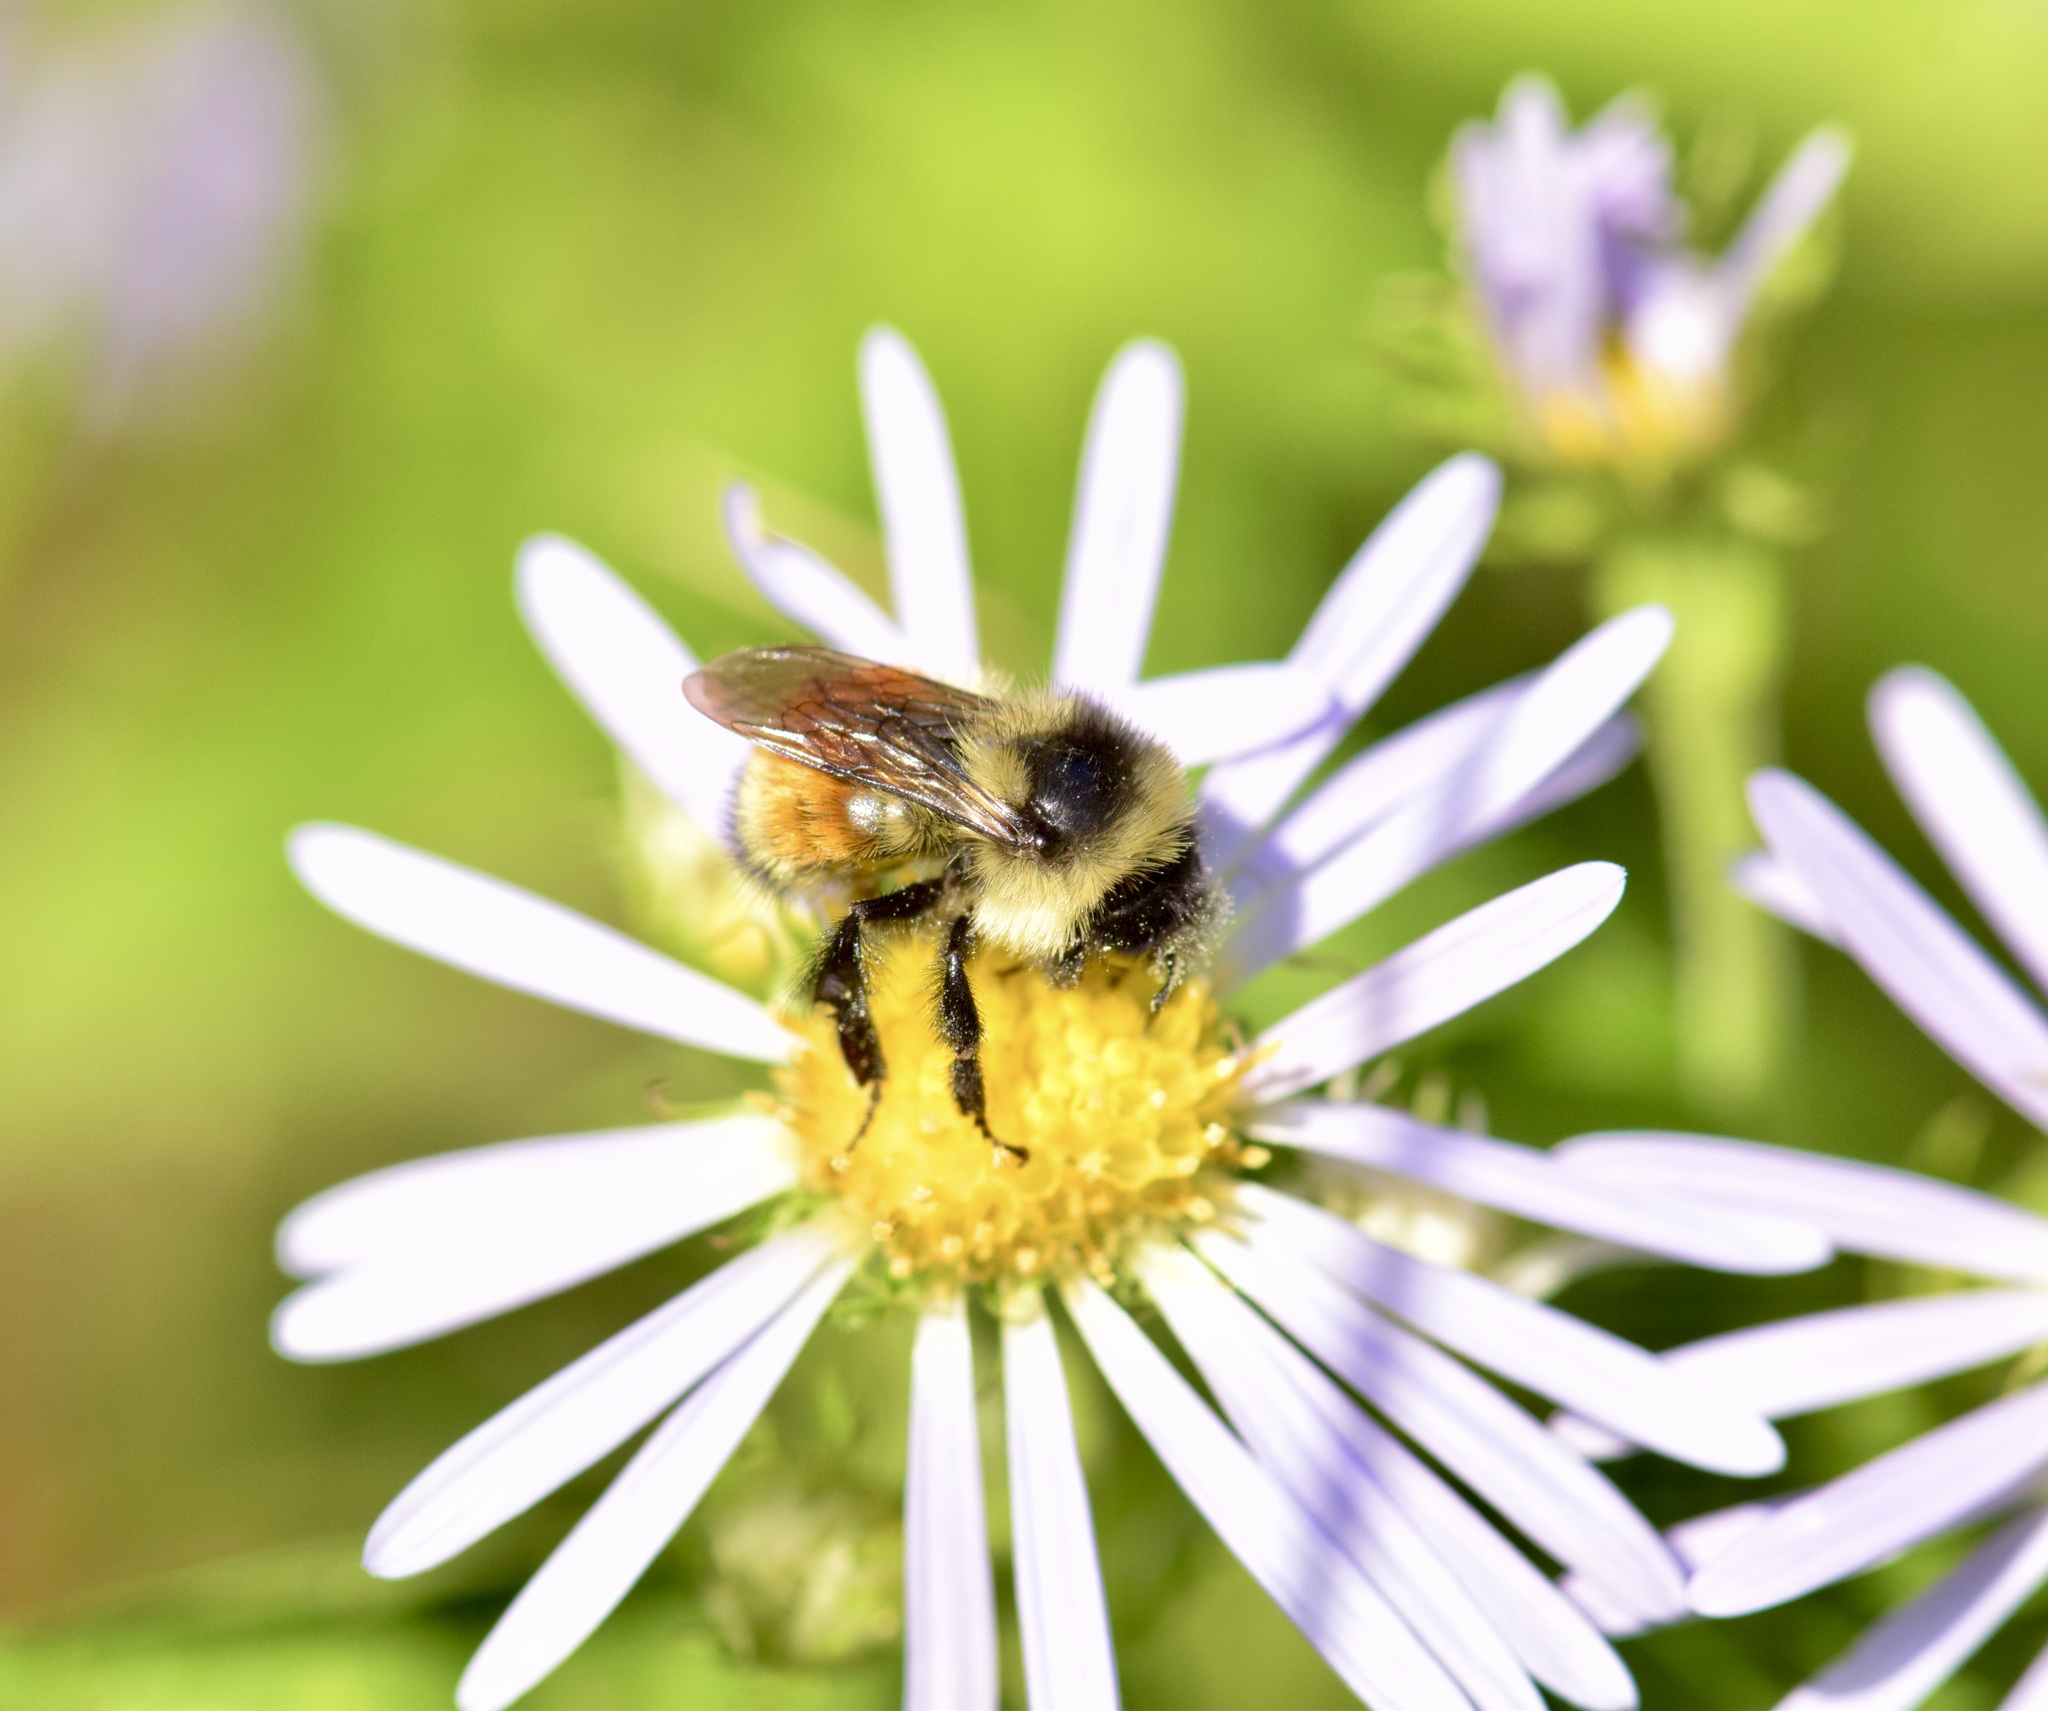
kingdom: Animalia
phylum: Arthropoda
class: Insecta
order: Hymenoptera
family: Apidae
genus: Bombus
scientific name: Bombus ternarius
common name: Tri-colored bumble bee
